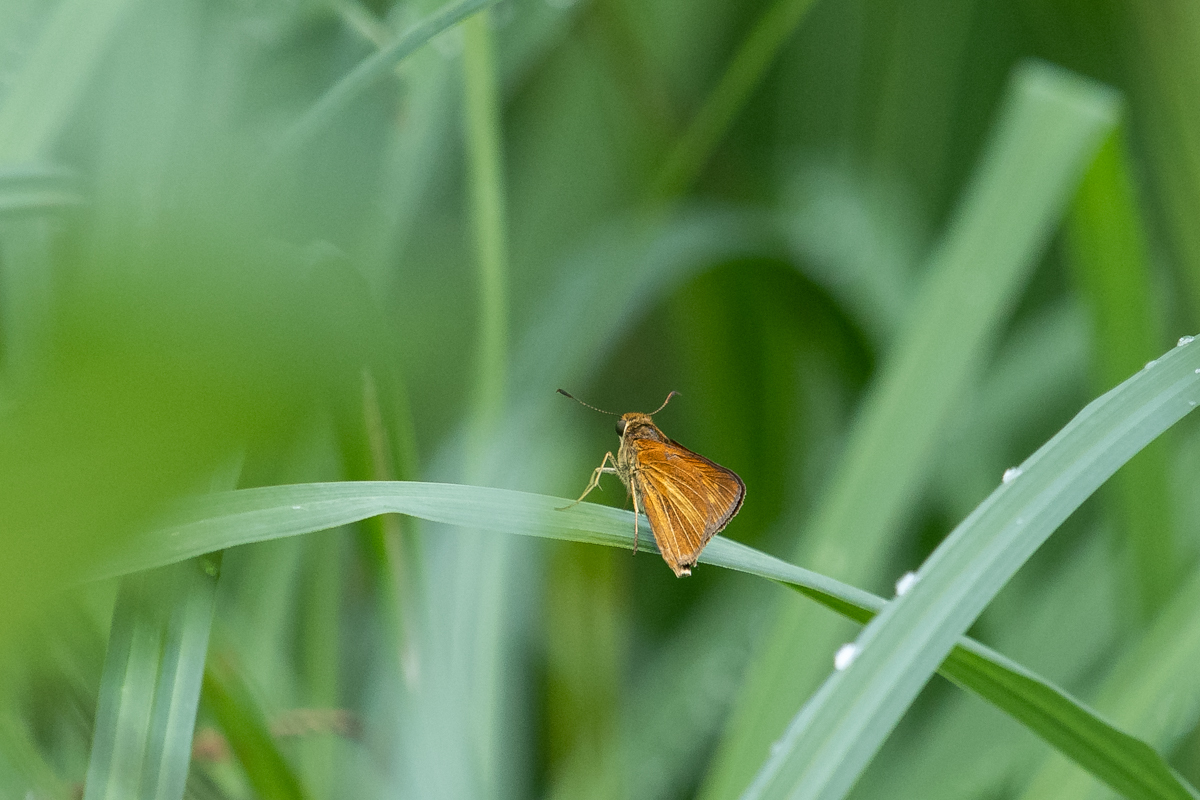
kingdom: Animalia
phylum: Arthropoda
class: Insecta
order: Lepidoptera
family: Hesperiidae
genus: Euphyes
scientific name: Euphyes dion
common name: Dion skipper
